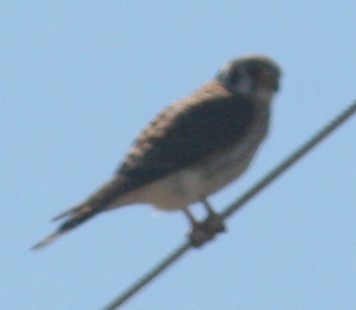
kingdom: Animalia
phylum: Chordata
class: Aves
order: Falconiformes
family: Falconidae
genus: Falco
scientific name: Falco sparverius
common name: American kestrel
